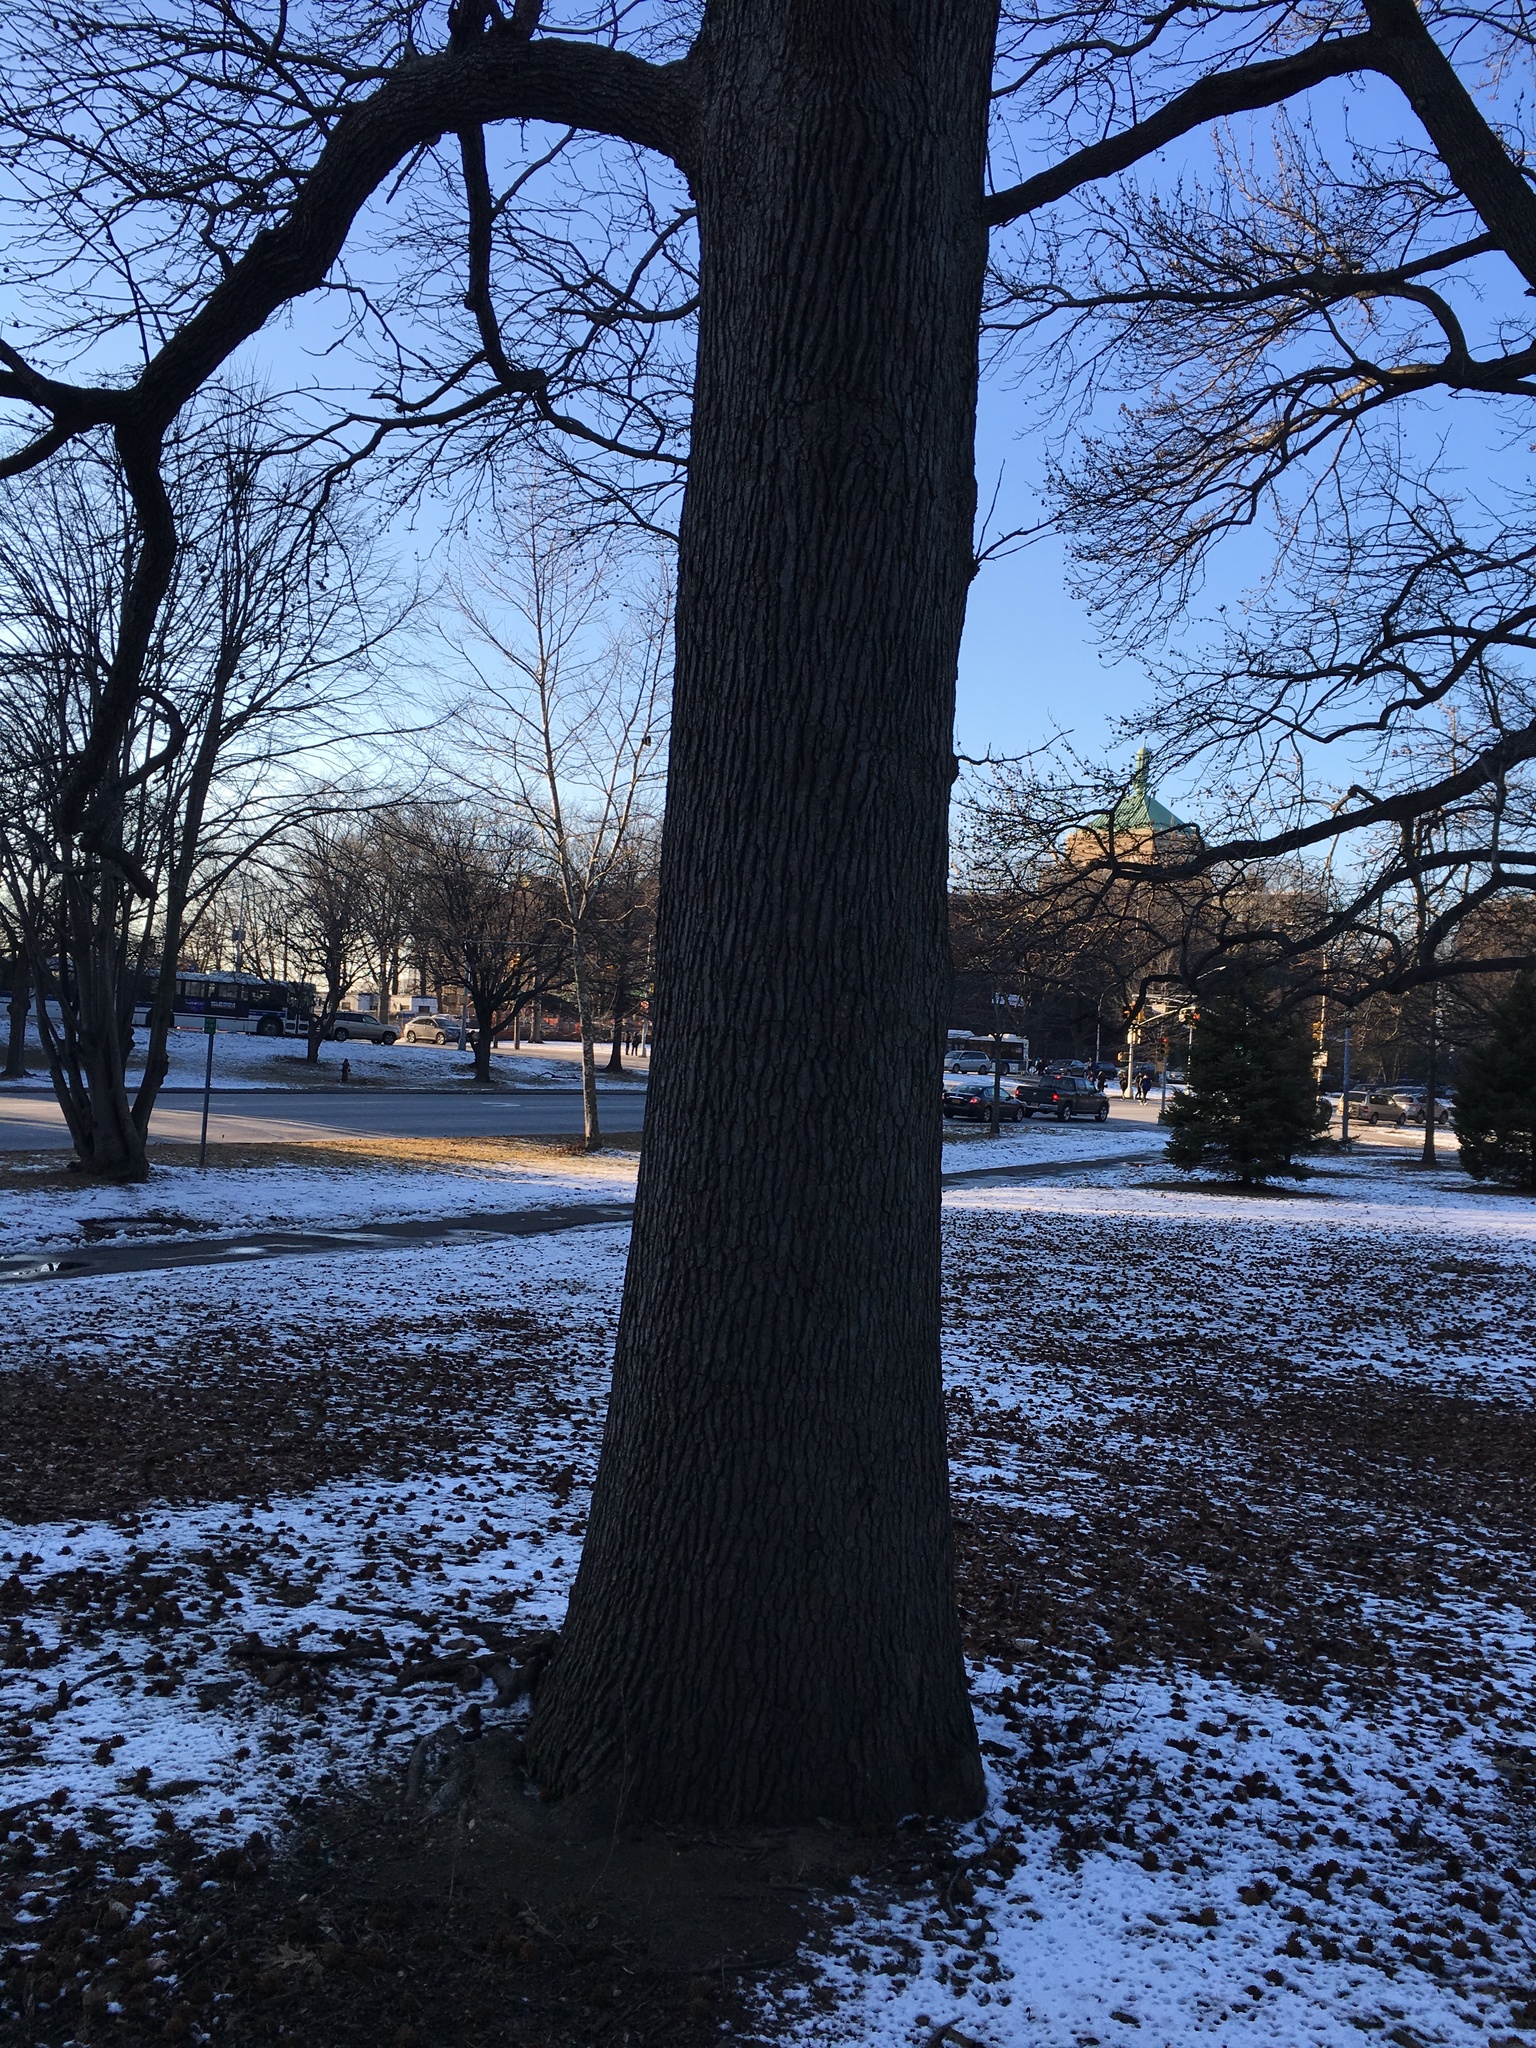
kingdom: Plantae
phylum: Tracheophyta
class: Magnoliopsida
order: Saxifragales
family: Altingiaceae
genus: Liquidambar
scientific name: Liquidambar styraciflua
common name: Sweet gum
